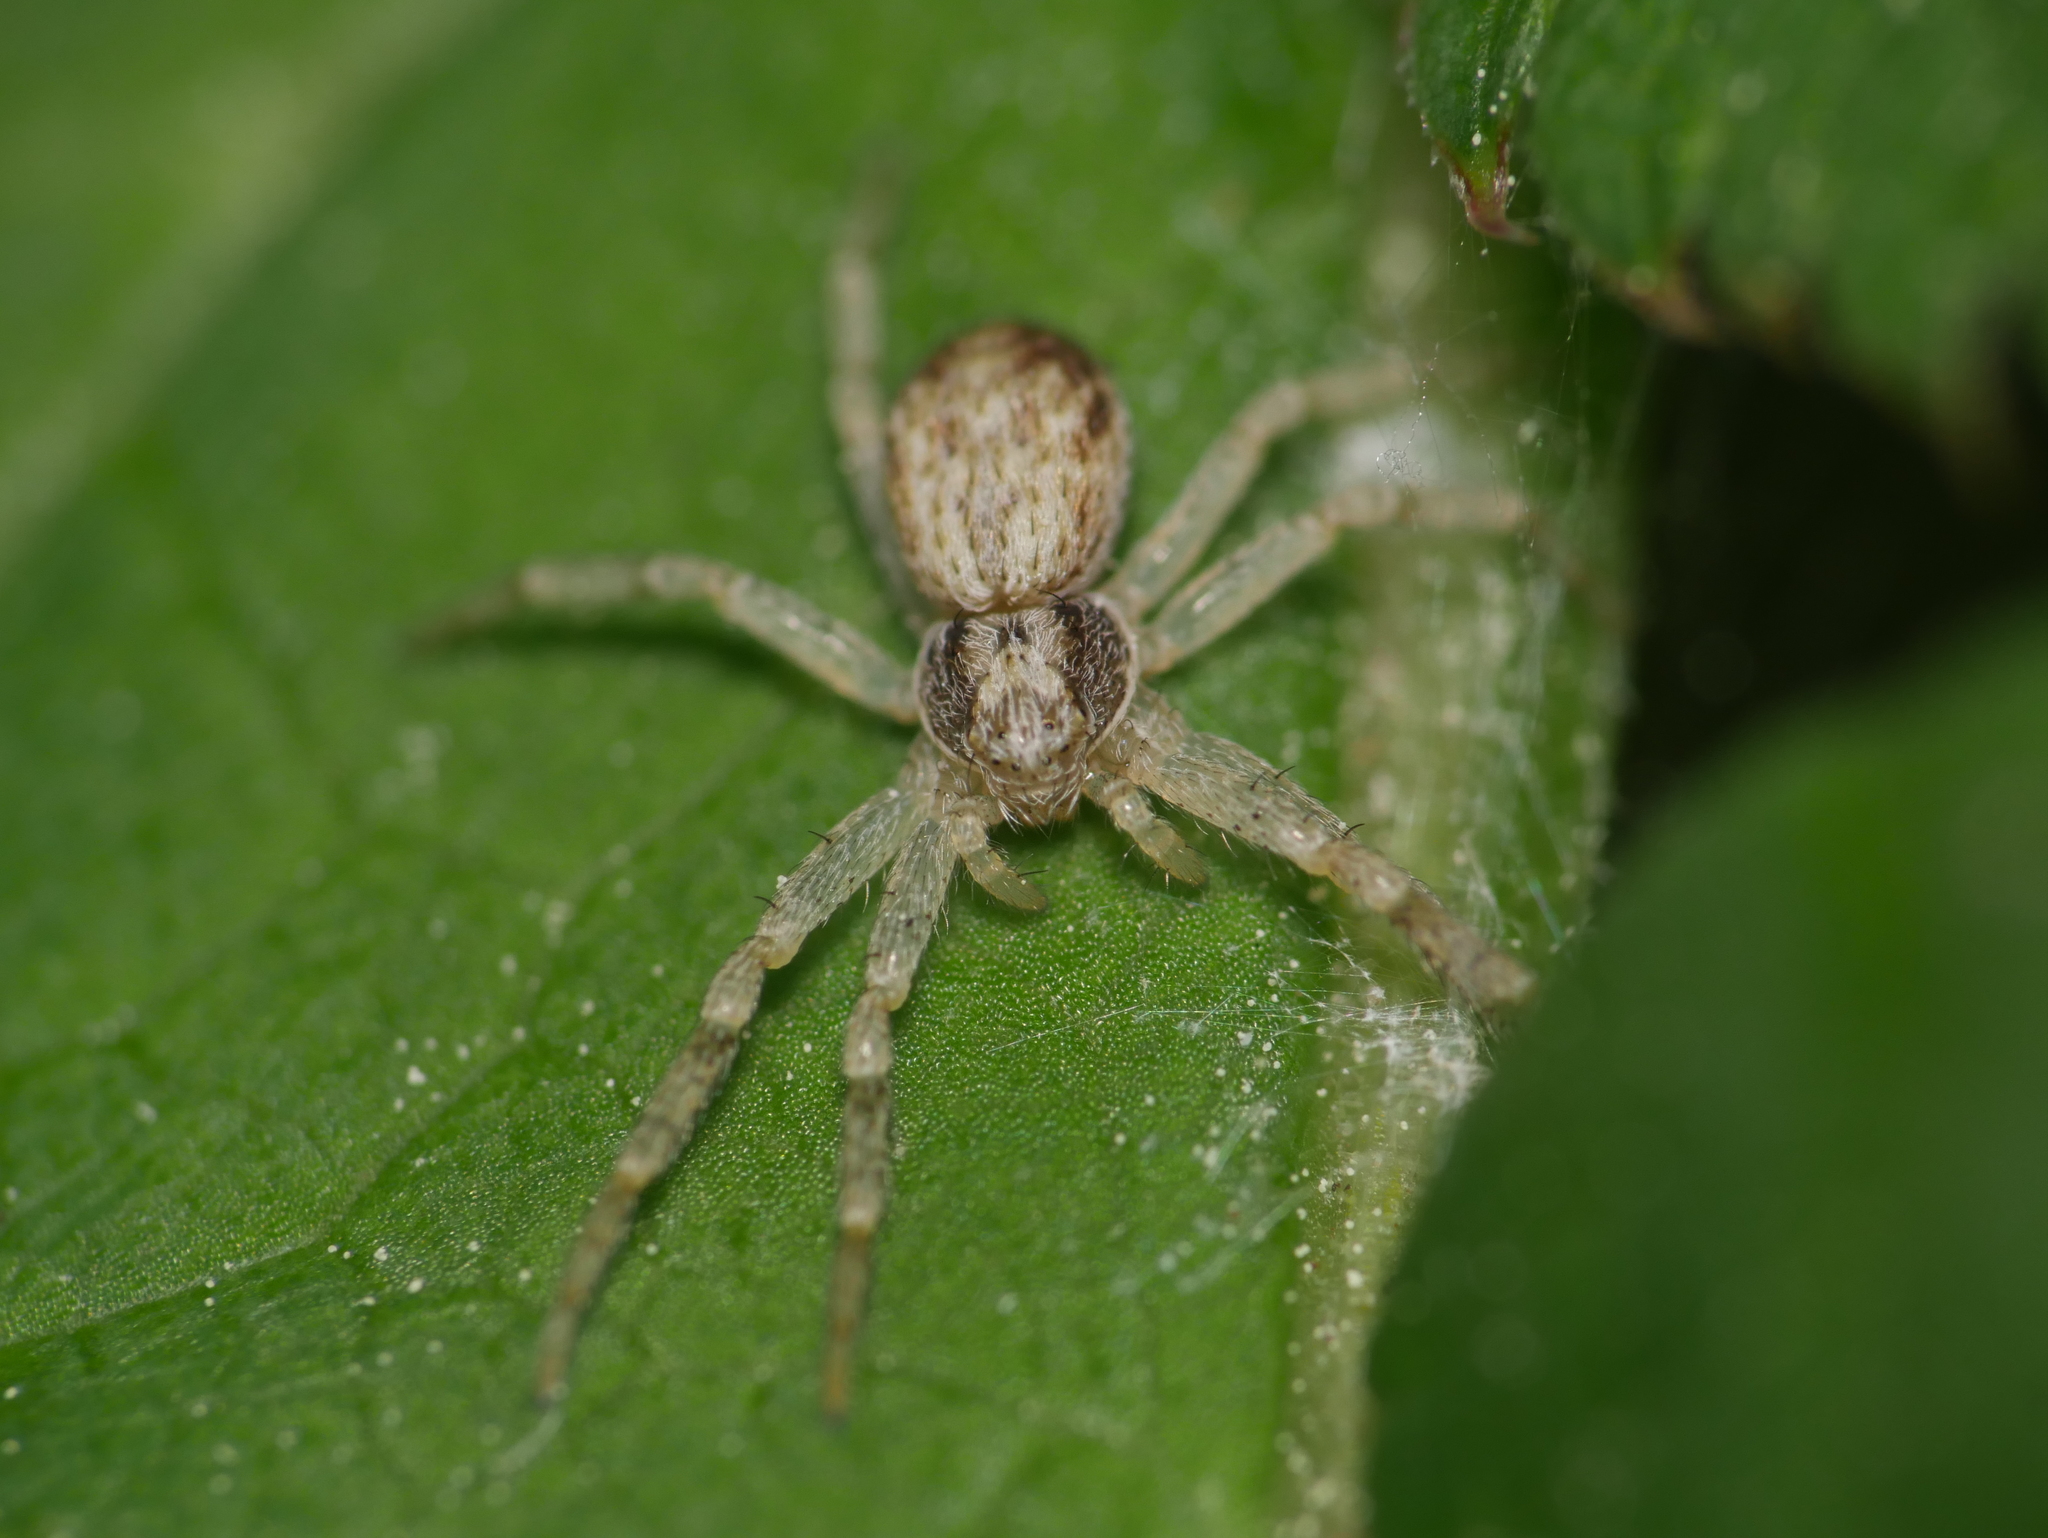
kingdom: Animalia
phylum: Arthropoda
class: Arachnida
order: Araneae
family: Philodromidae
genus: Philodromus
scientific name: Philodromus dispar
